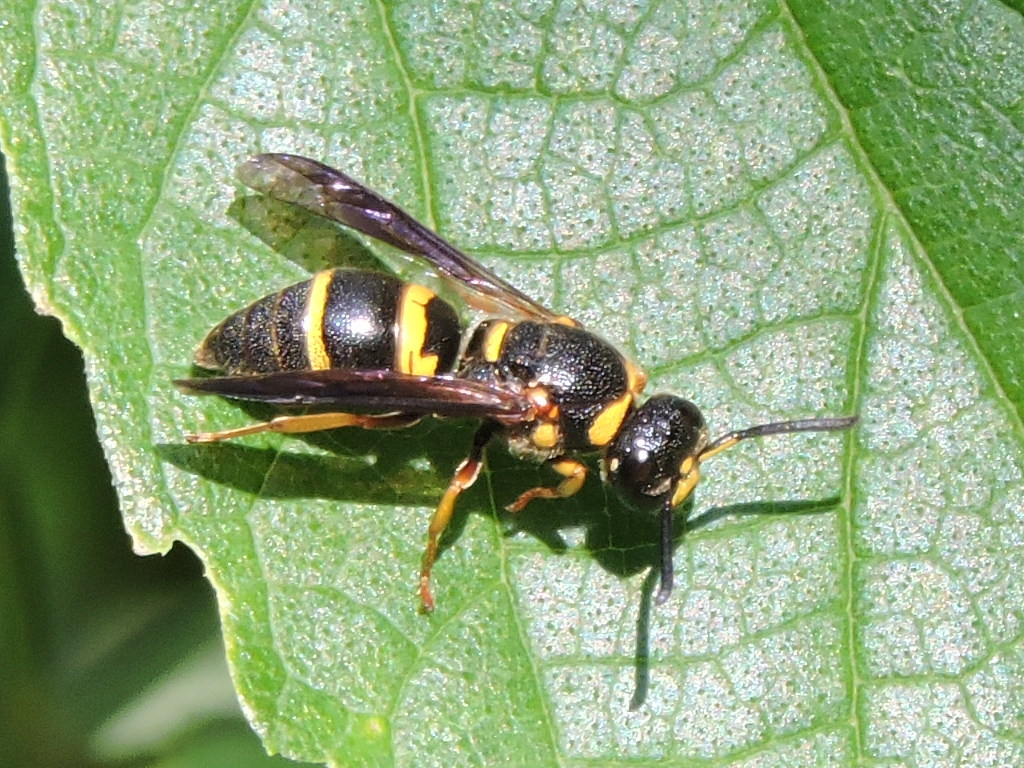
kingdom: Animalia
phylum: Arthropoda
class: Insecta
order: Hymenoptera
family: Eumenidae
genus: Euodynerus
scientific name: Euodynerus foraminatus
